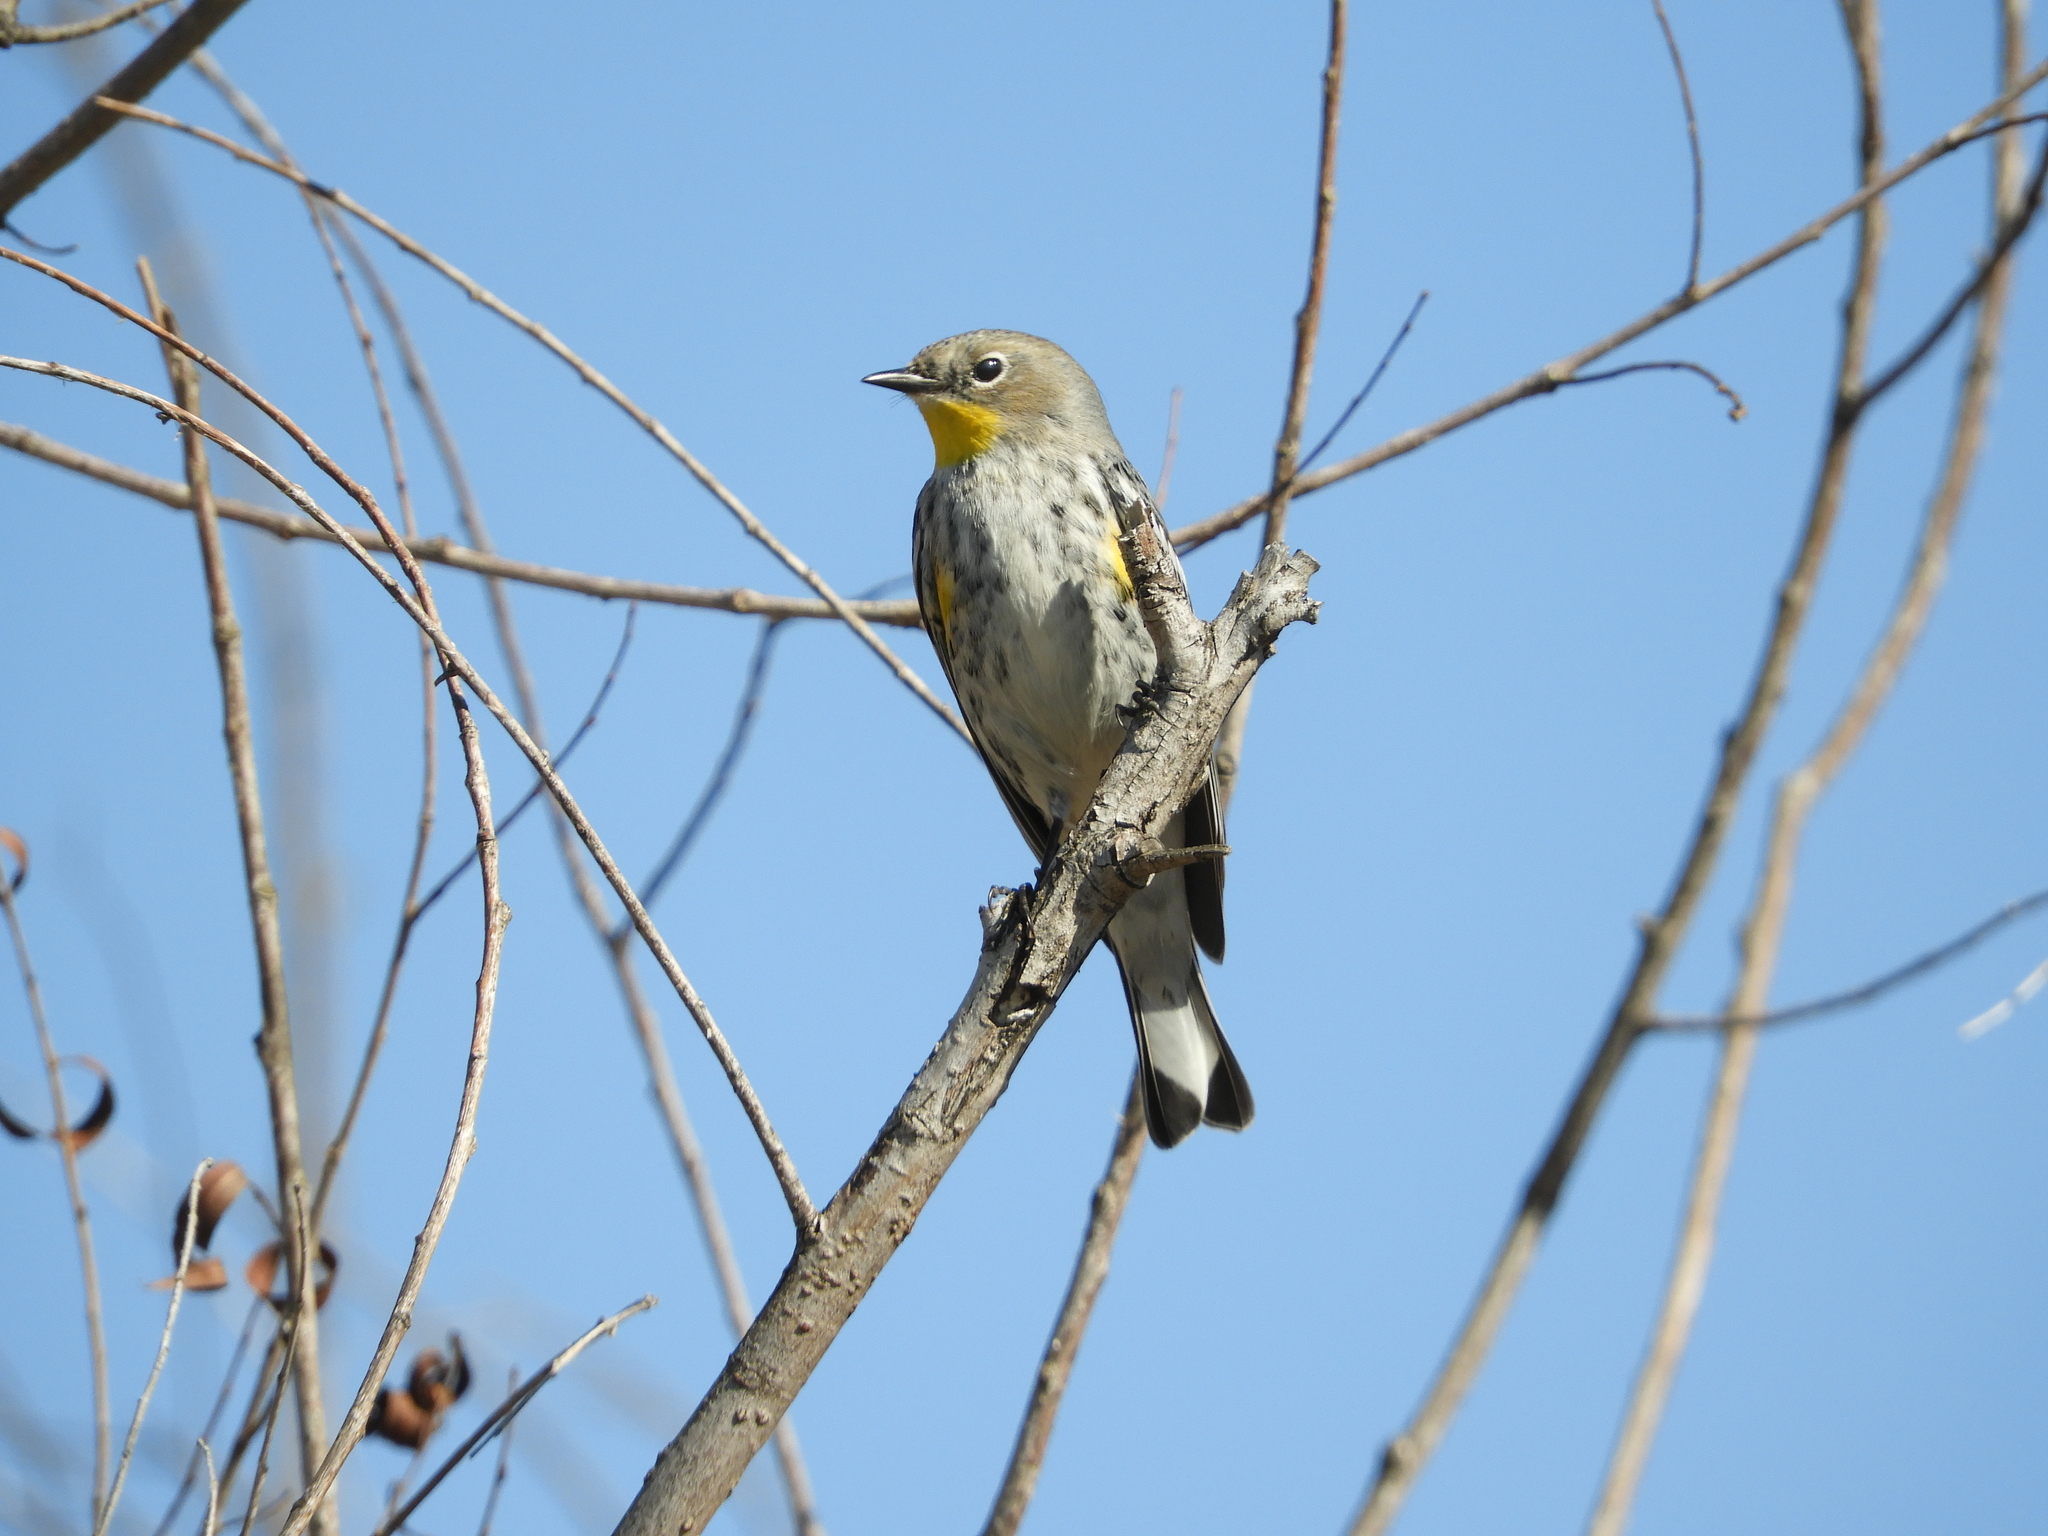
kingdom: Animalia
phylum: Chordata
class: Aves
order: Passeriformes
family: Parulidae
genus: Setophaga
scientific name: Setophaga auduboni
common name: Audubon's warbler
